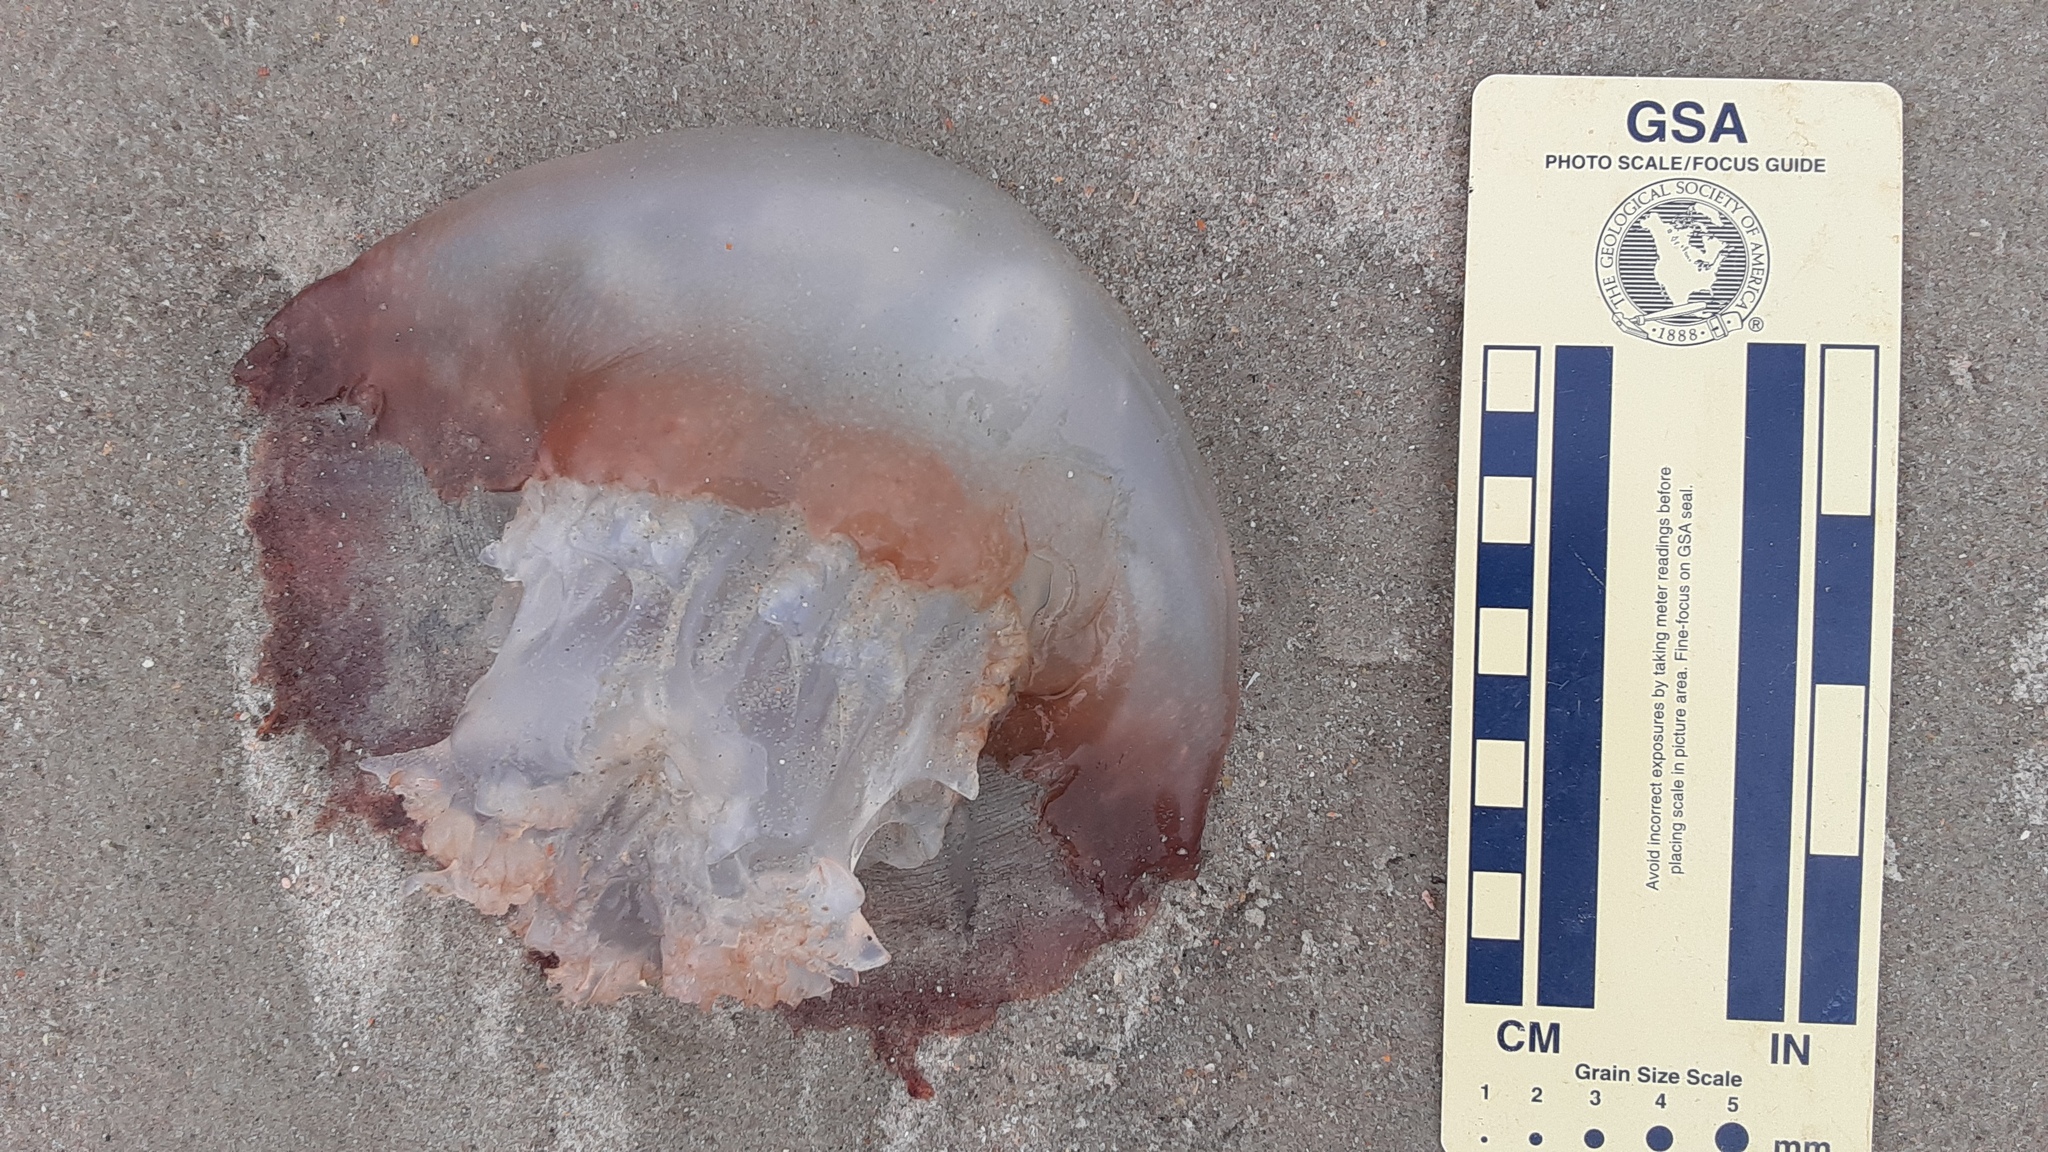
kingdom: Animalia
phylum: Cnidaria
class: Scyphozoa
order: Rhizostomeae
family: Stomolophidae
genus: Stomolophus
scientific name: Stomolophus meleagris
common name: Cabbagehead
